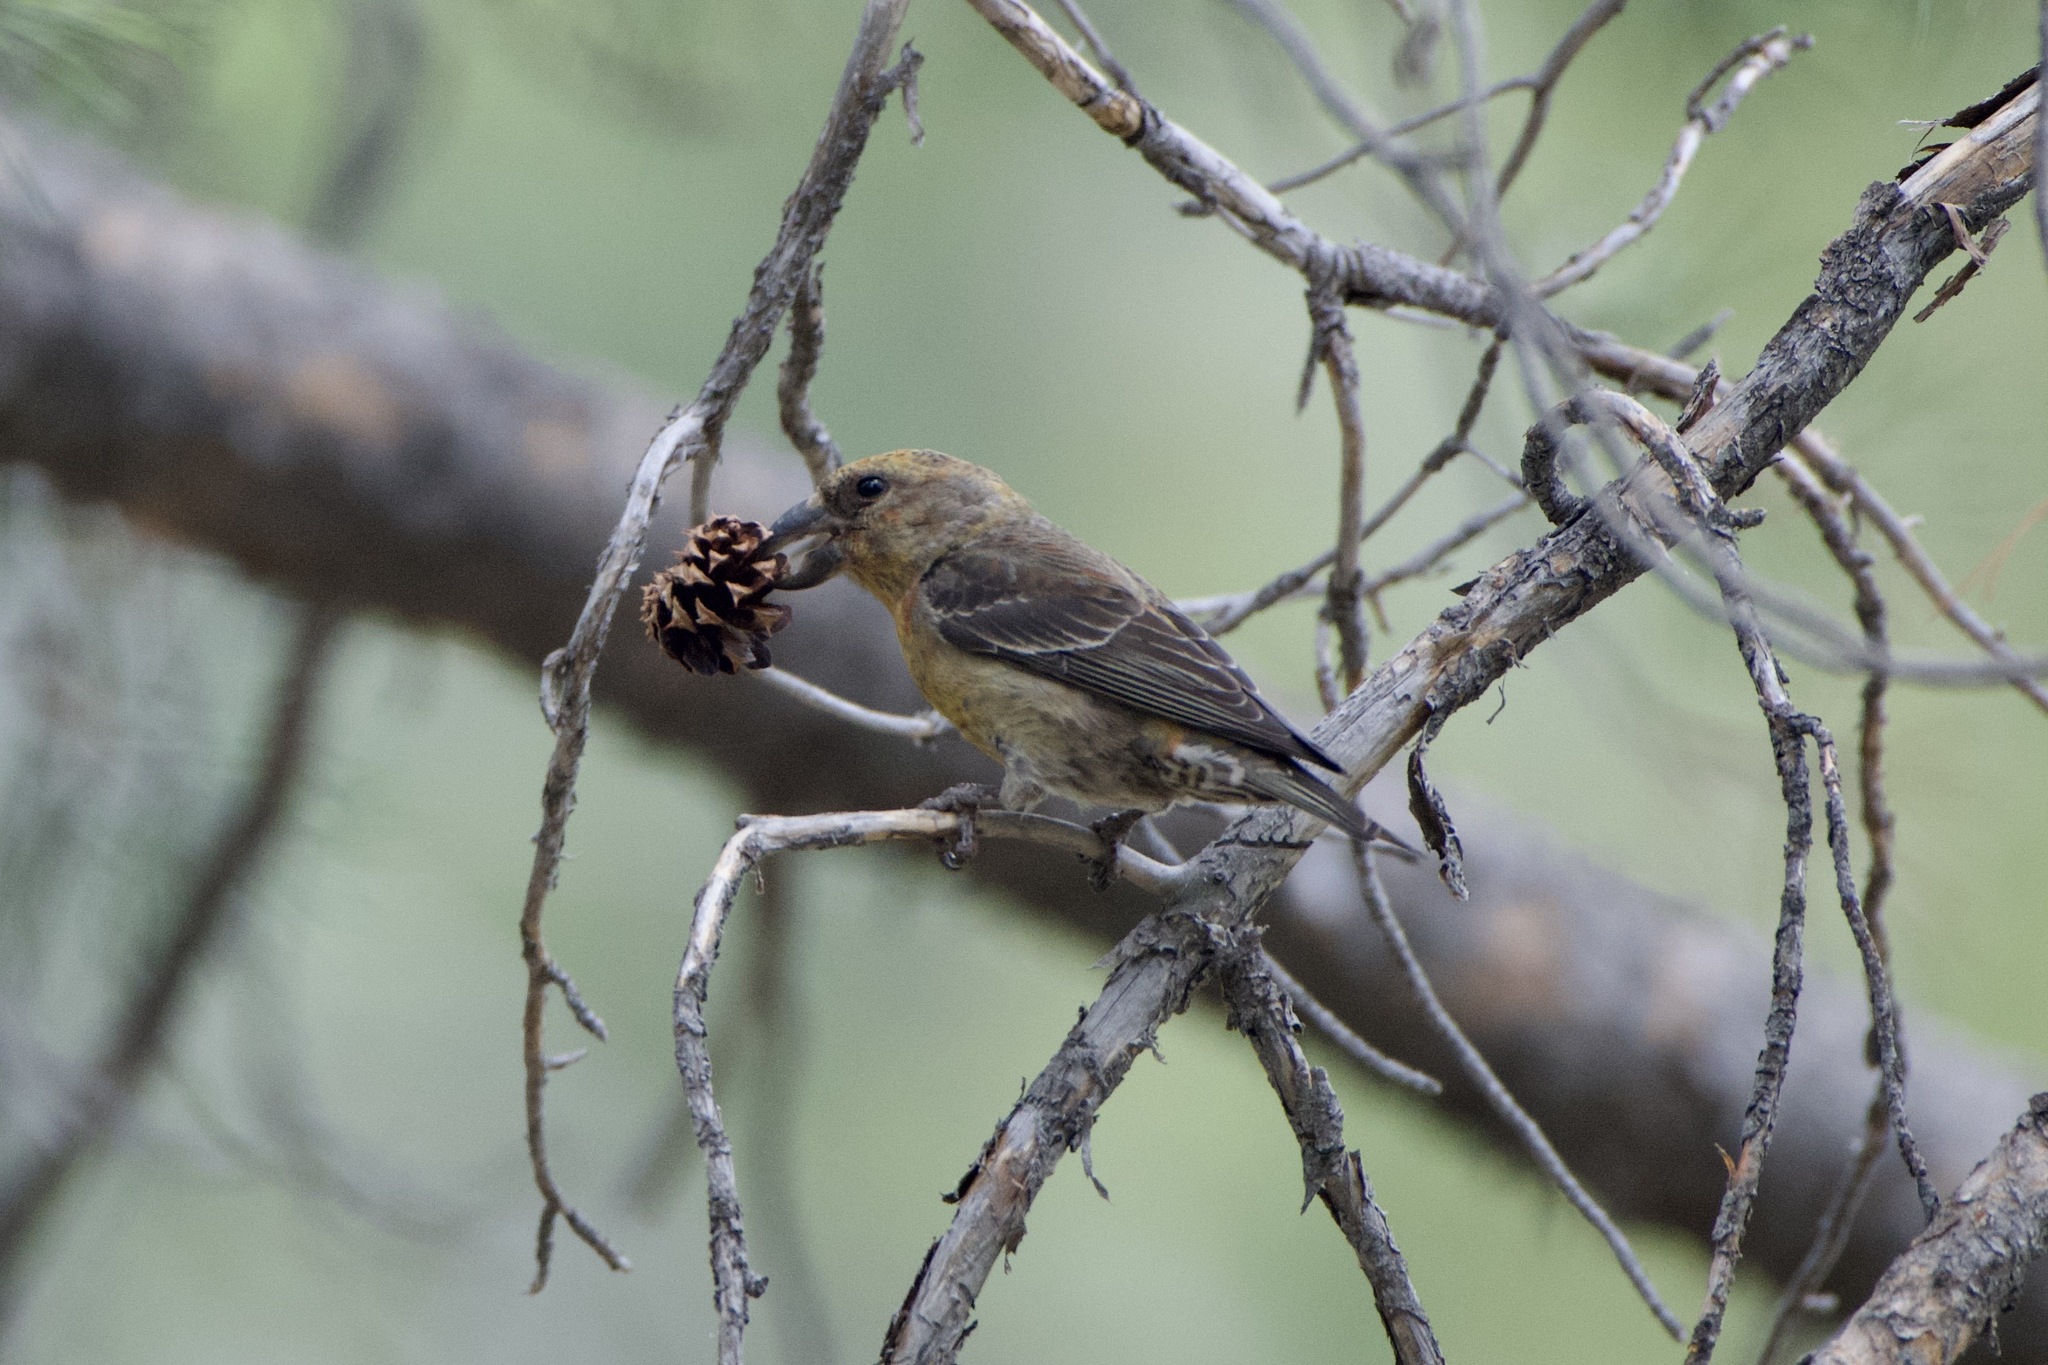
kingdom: Animalia
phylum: Chordata
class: Aves
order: Passeriformes
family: Fringillidae
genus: Loxia
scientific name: Loxia curvirostra
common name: Red crossbill
